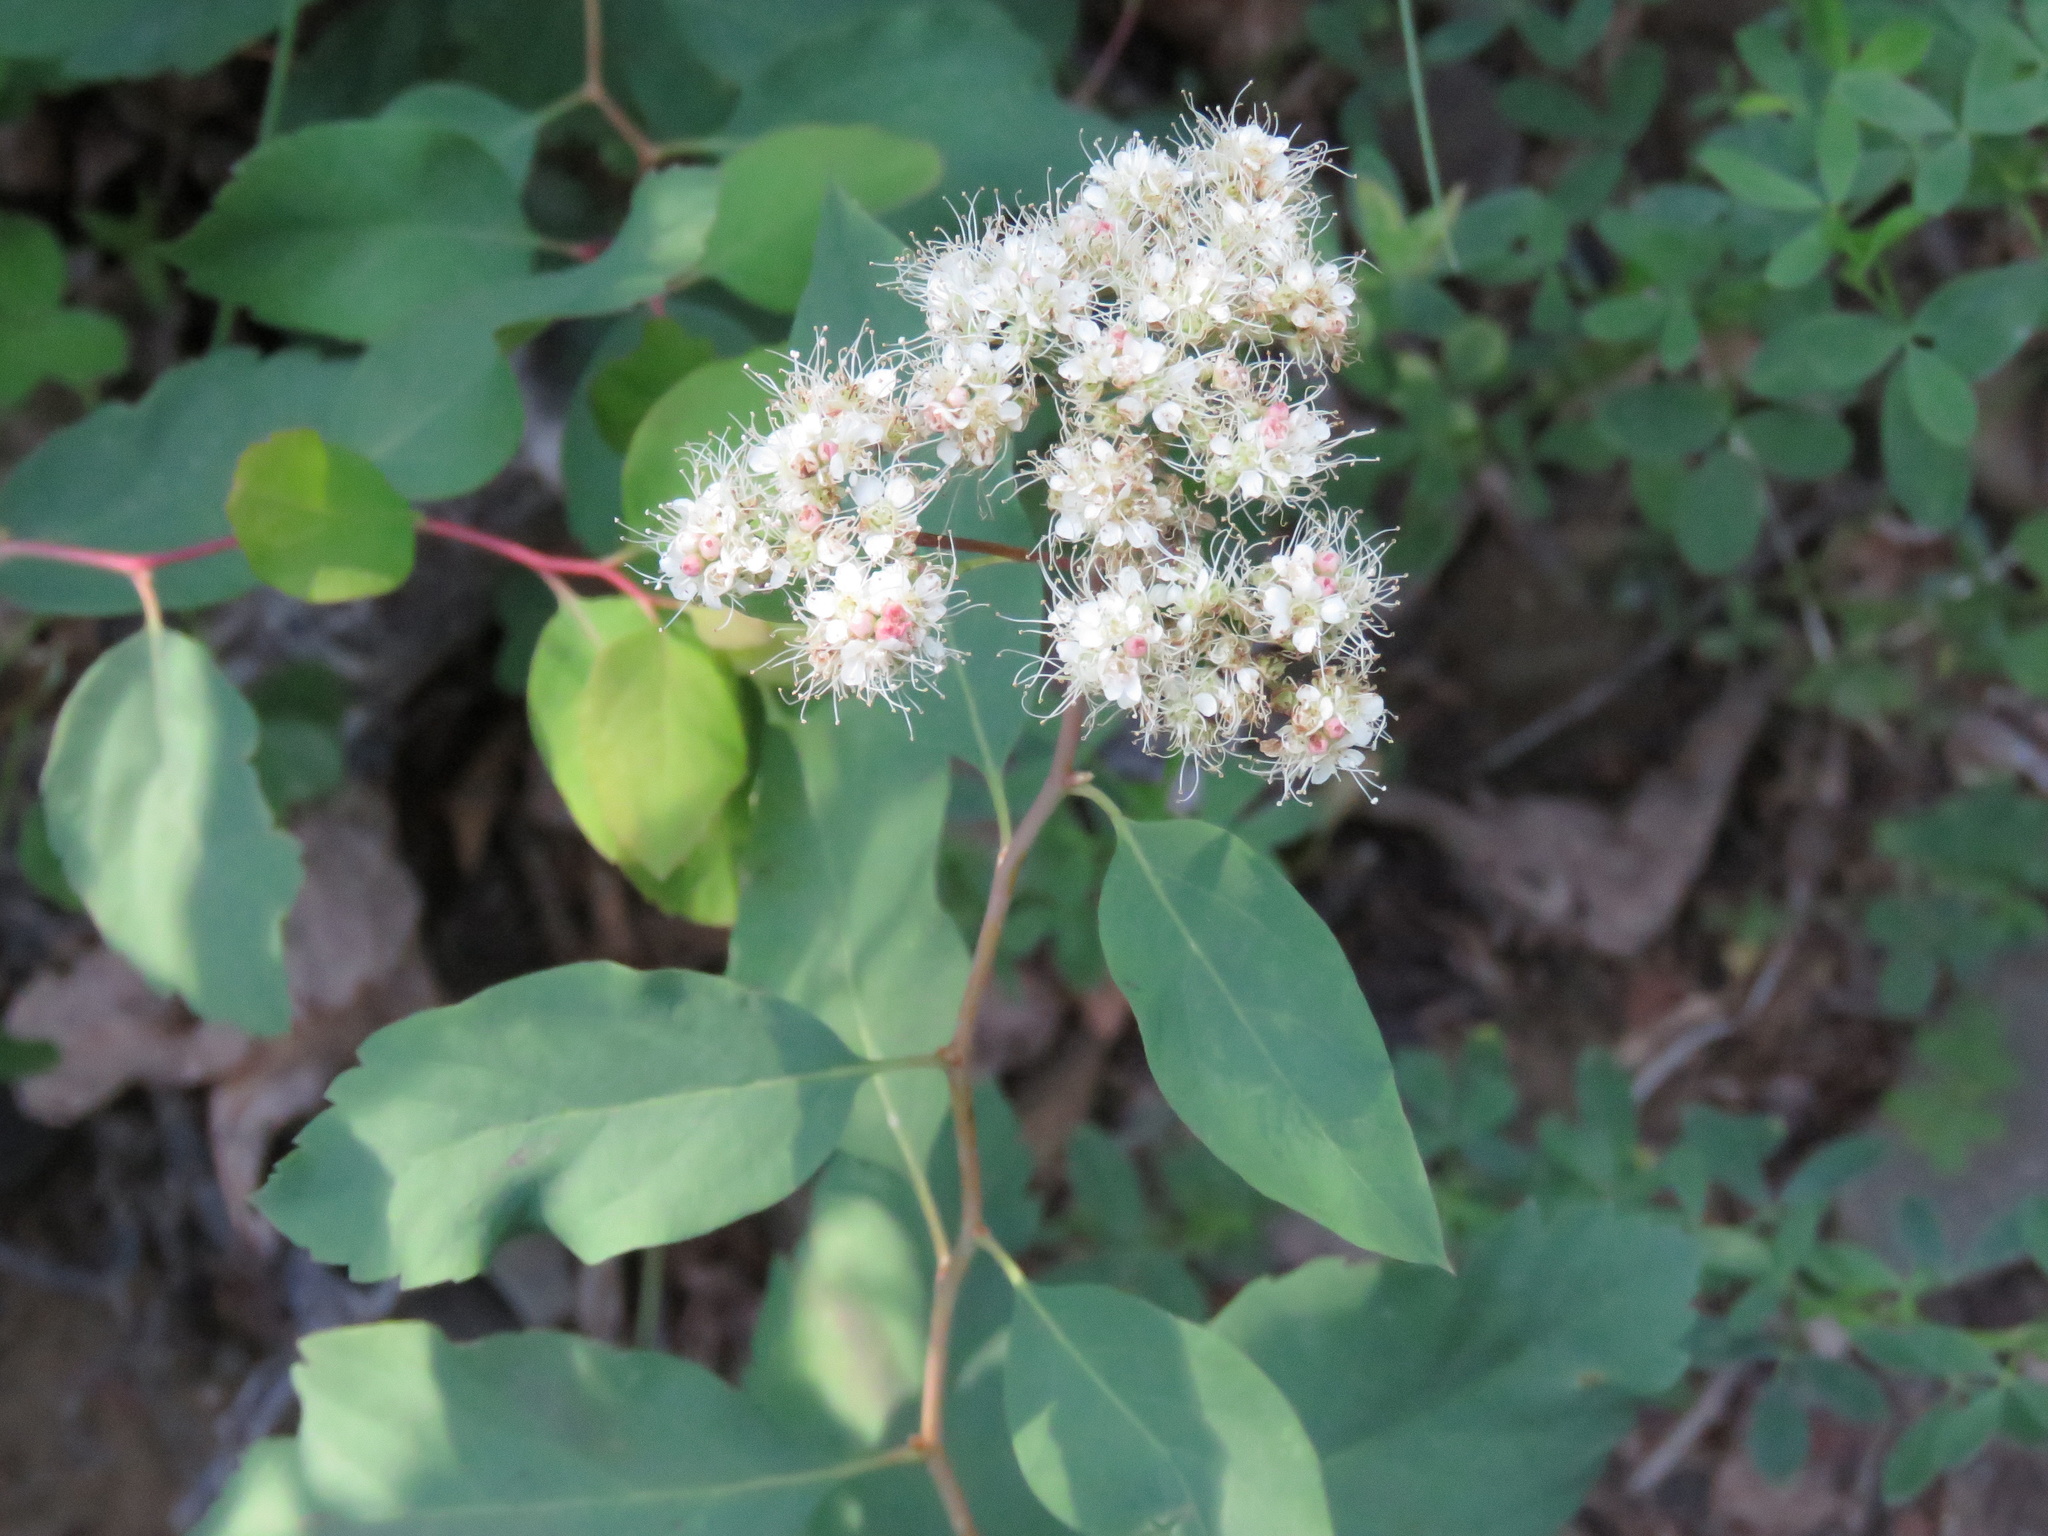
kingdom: Plantae
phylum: Tracheophyta
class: Magnoliopsida
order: Rosales
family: Rosaceae
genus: Spiraea
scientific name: Spiraea lucida
